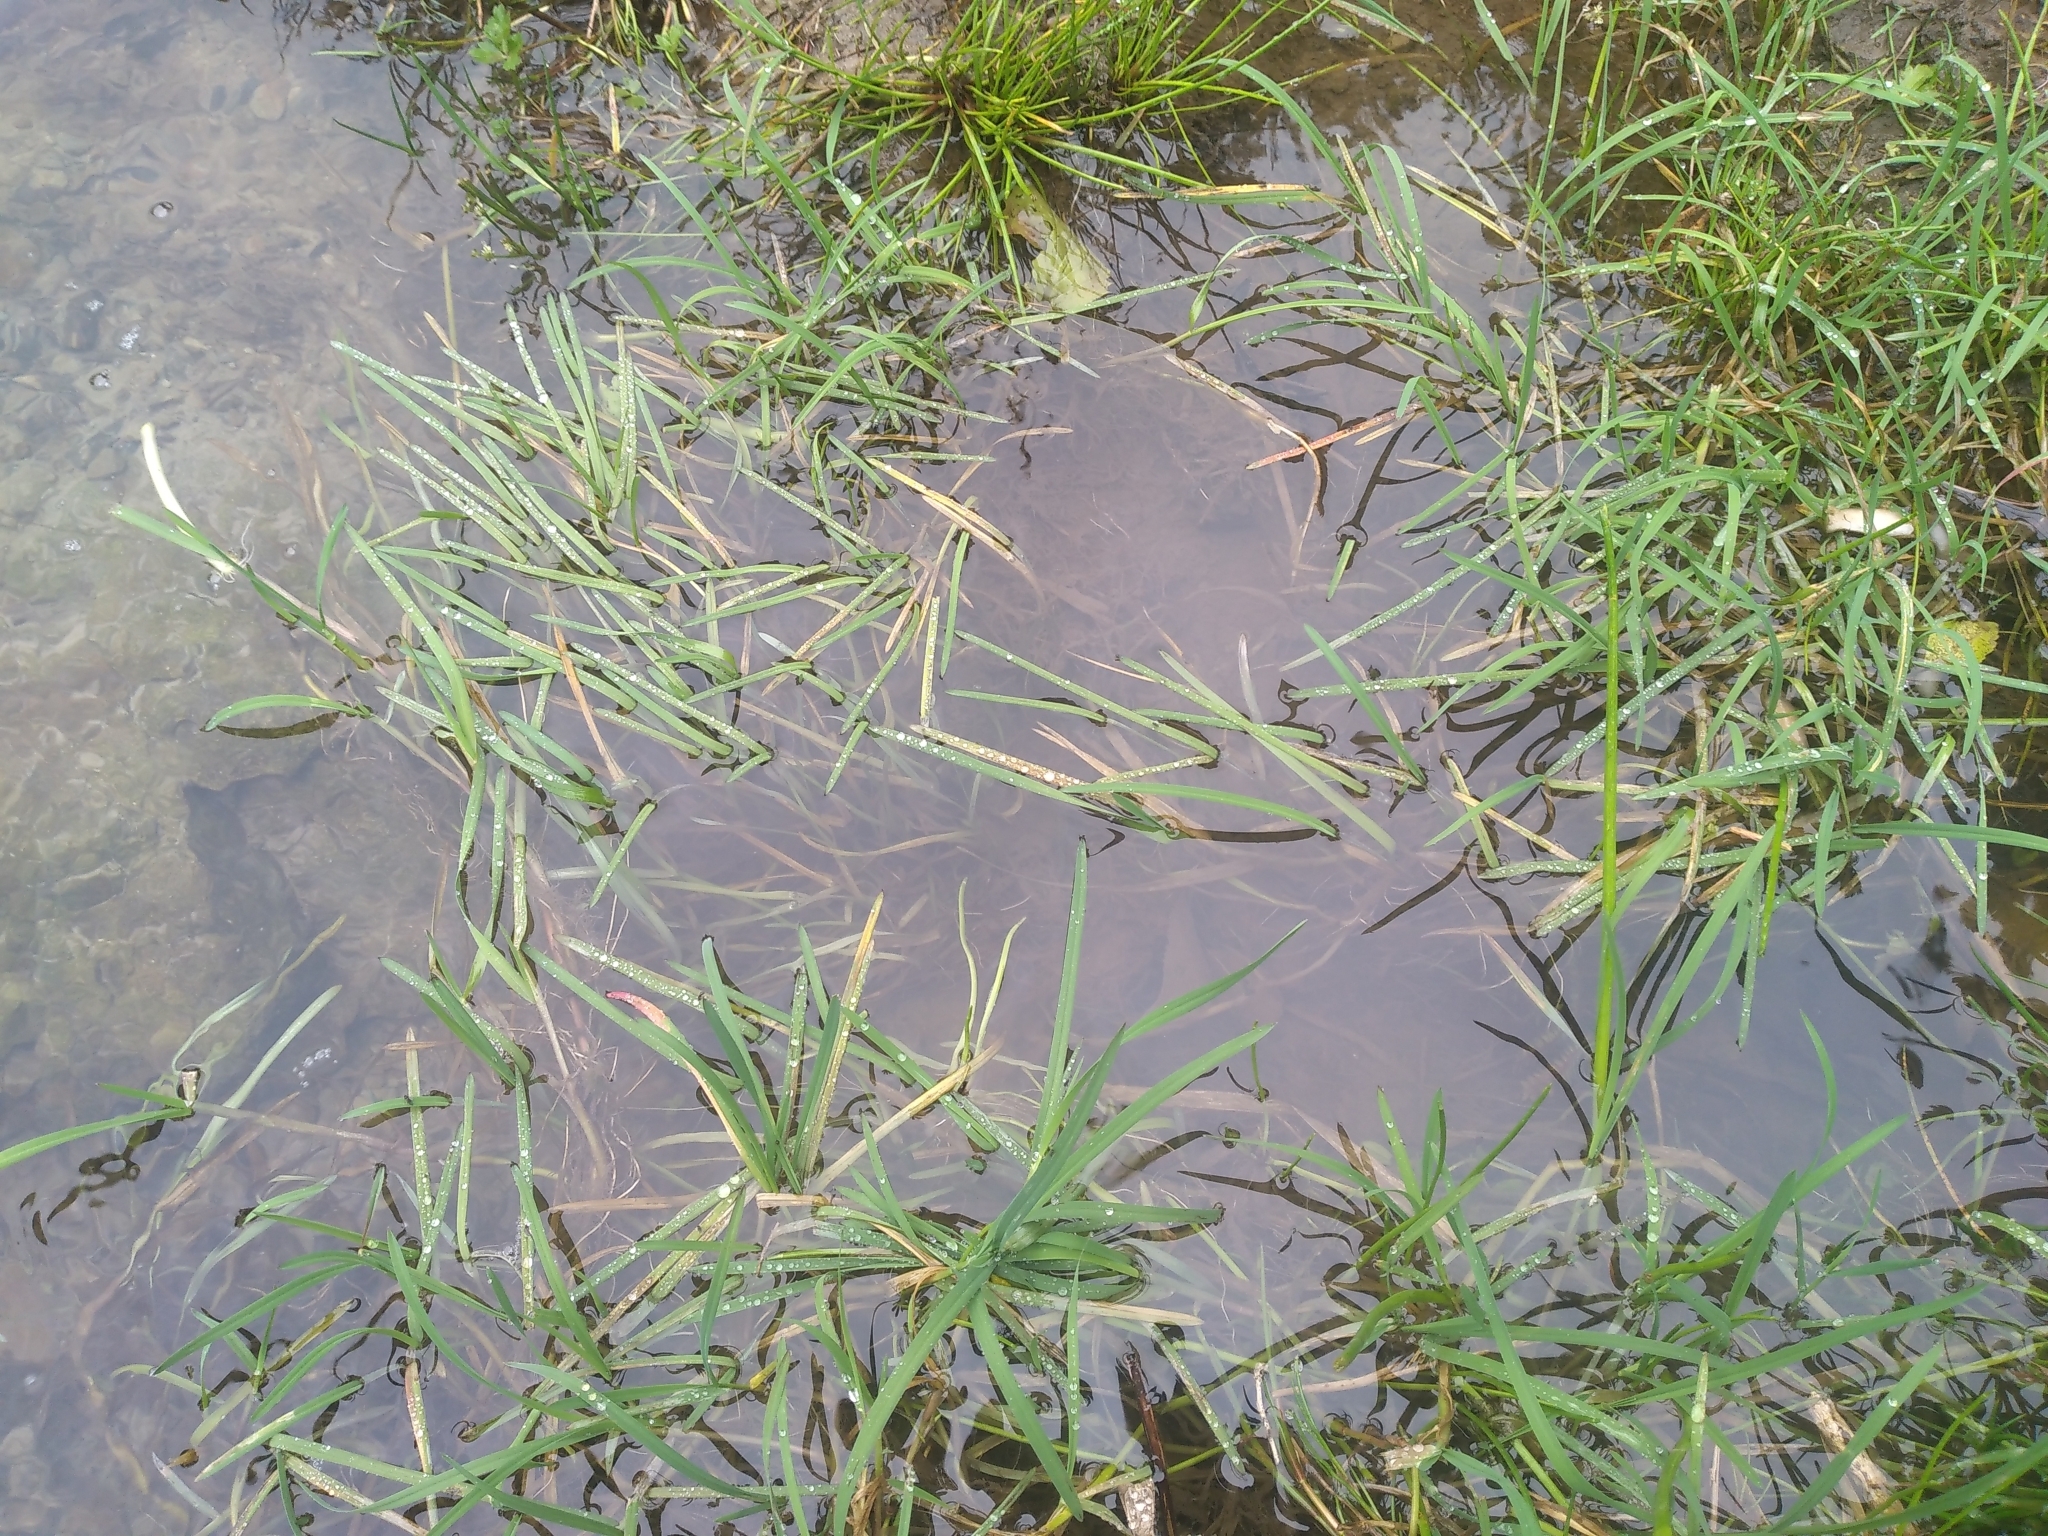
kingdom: Plantae
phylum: Tracheophyta
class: Liliopsida
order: Poales
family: Poaceae
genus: Glyceria
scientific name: Glyceria fluitans
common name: Floating sweet-grass
